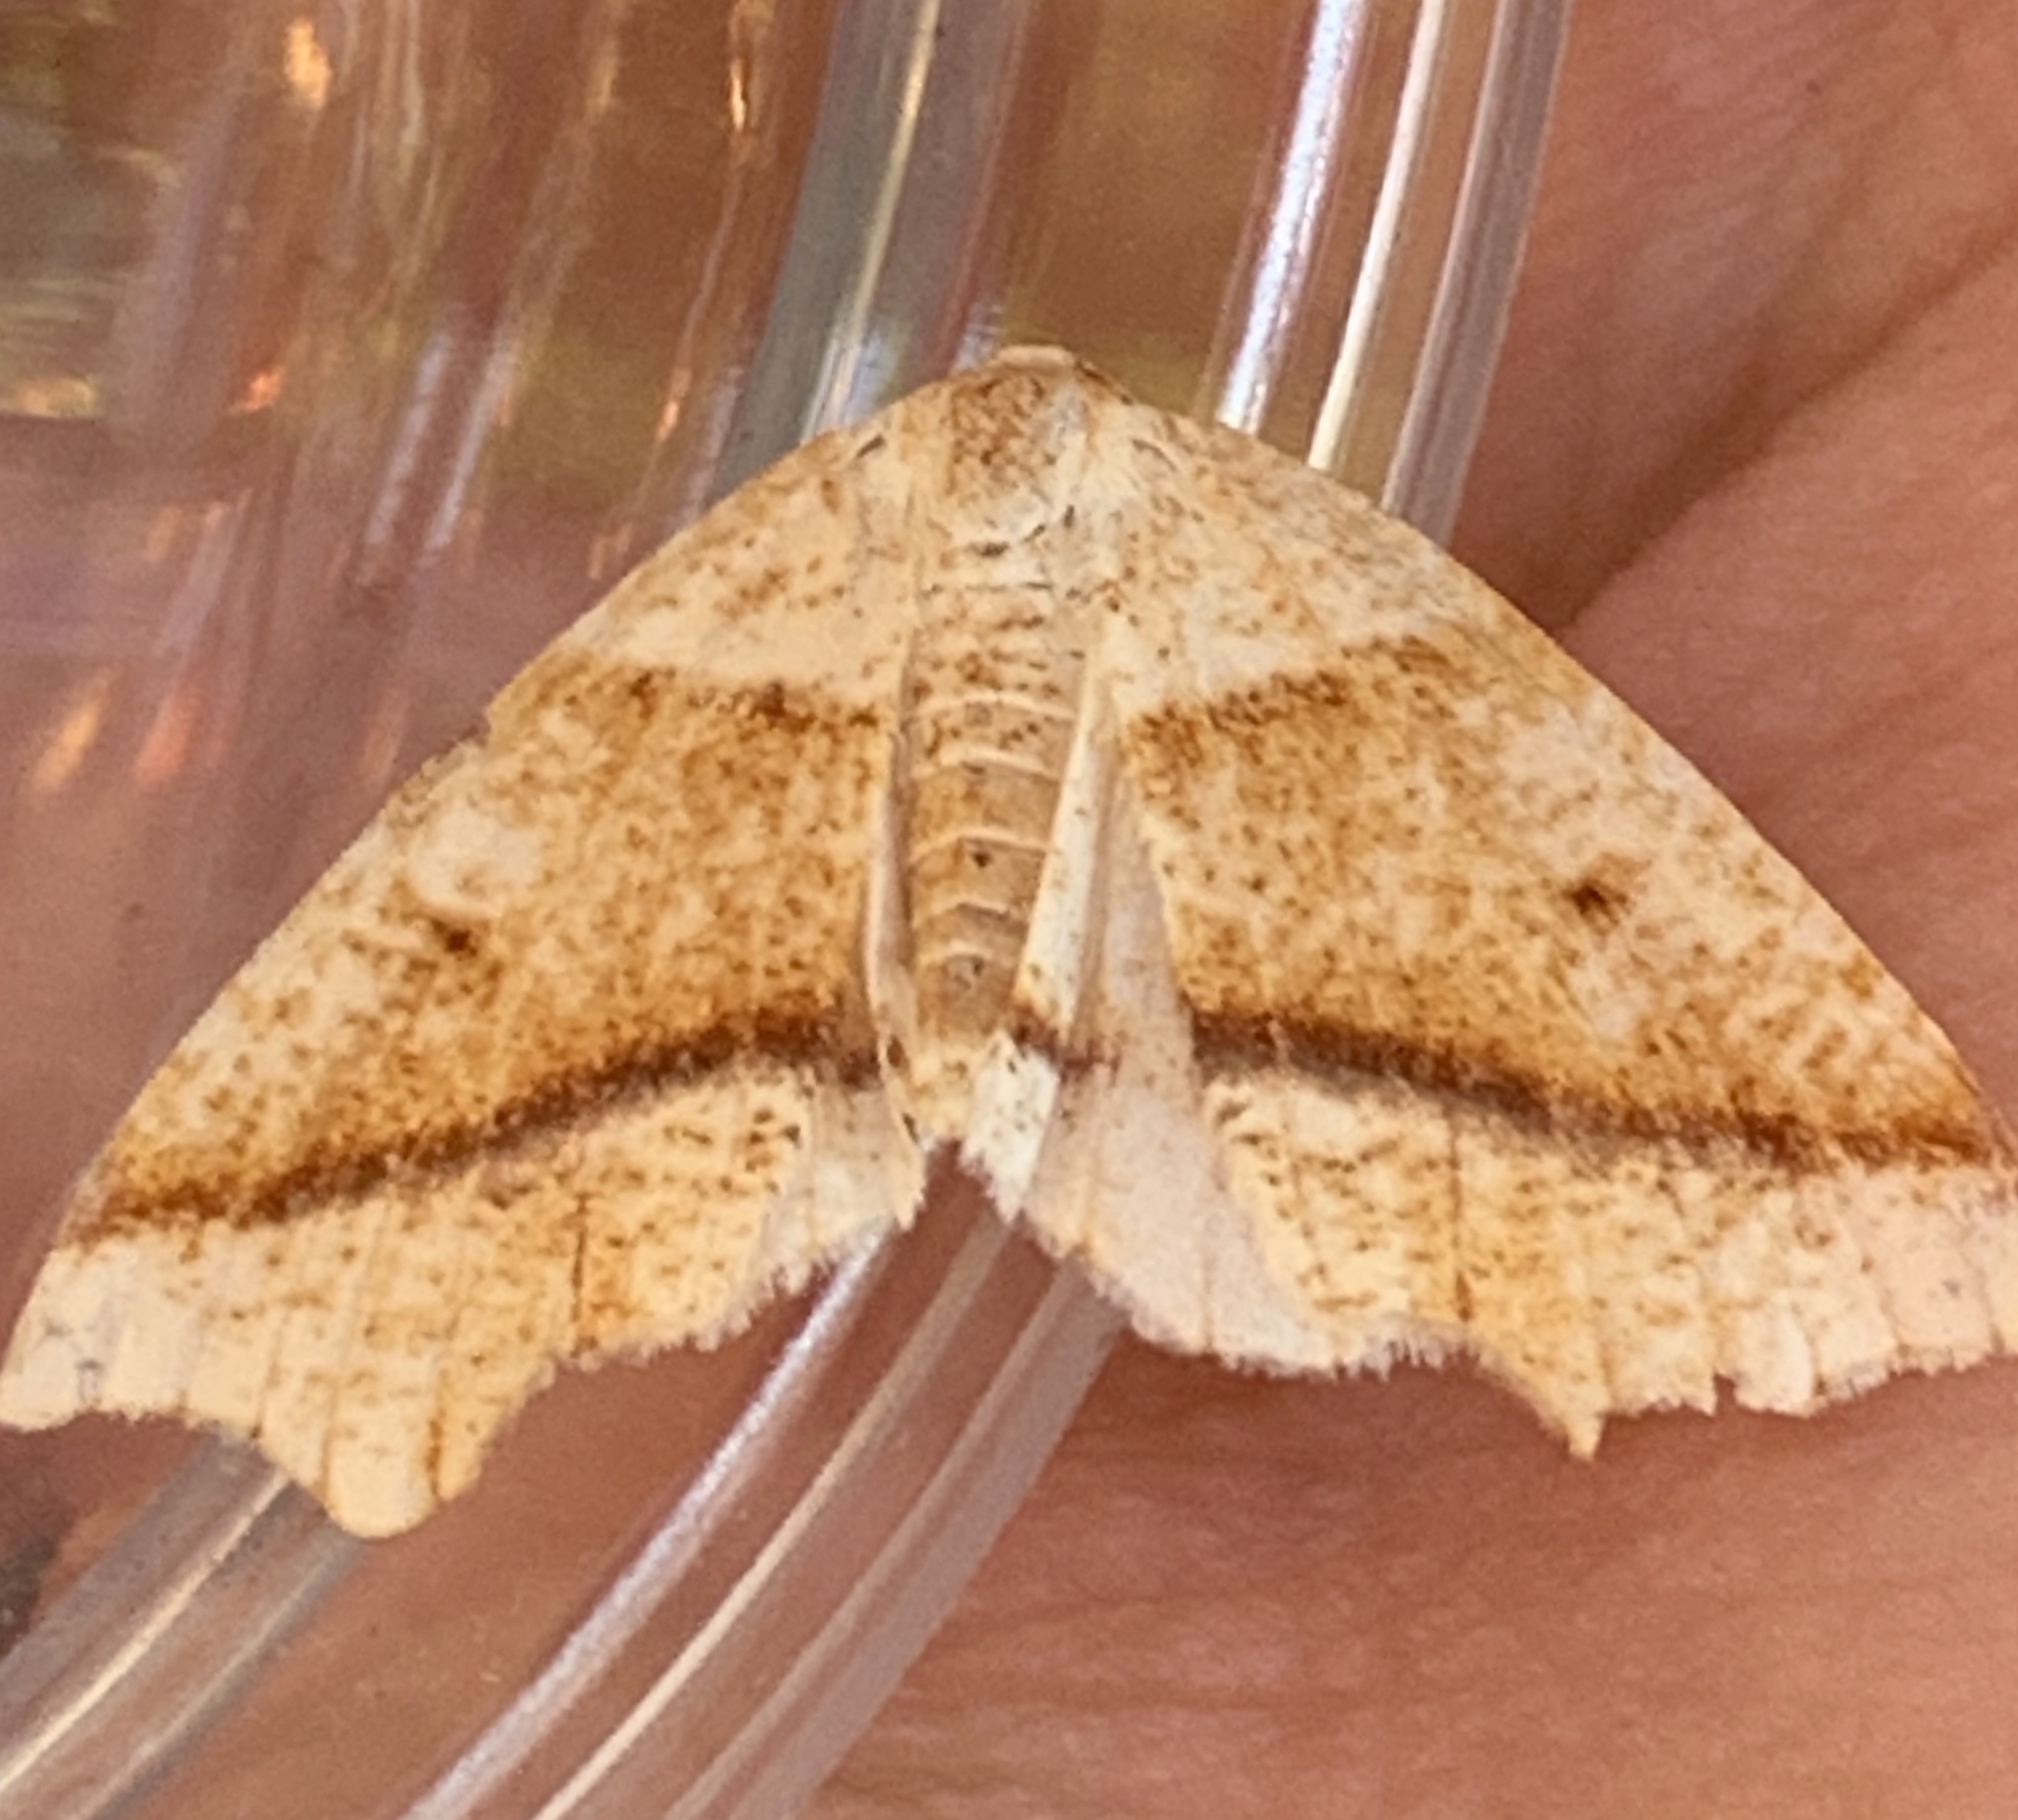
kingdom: Animalia
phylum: Arthropoda
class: Insecta
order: Lepidoptera
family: Geometridae
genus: Plagodis
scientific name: Plagodis alcoolaria
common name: Hollow-spotted plagodis
